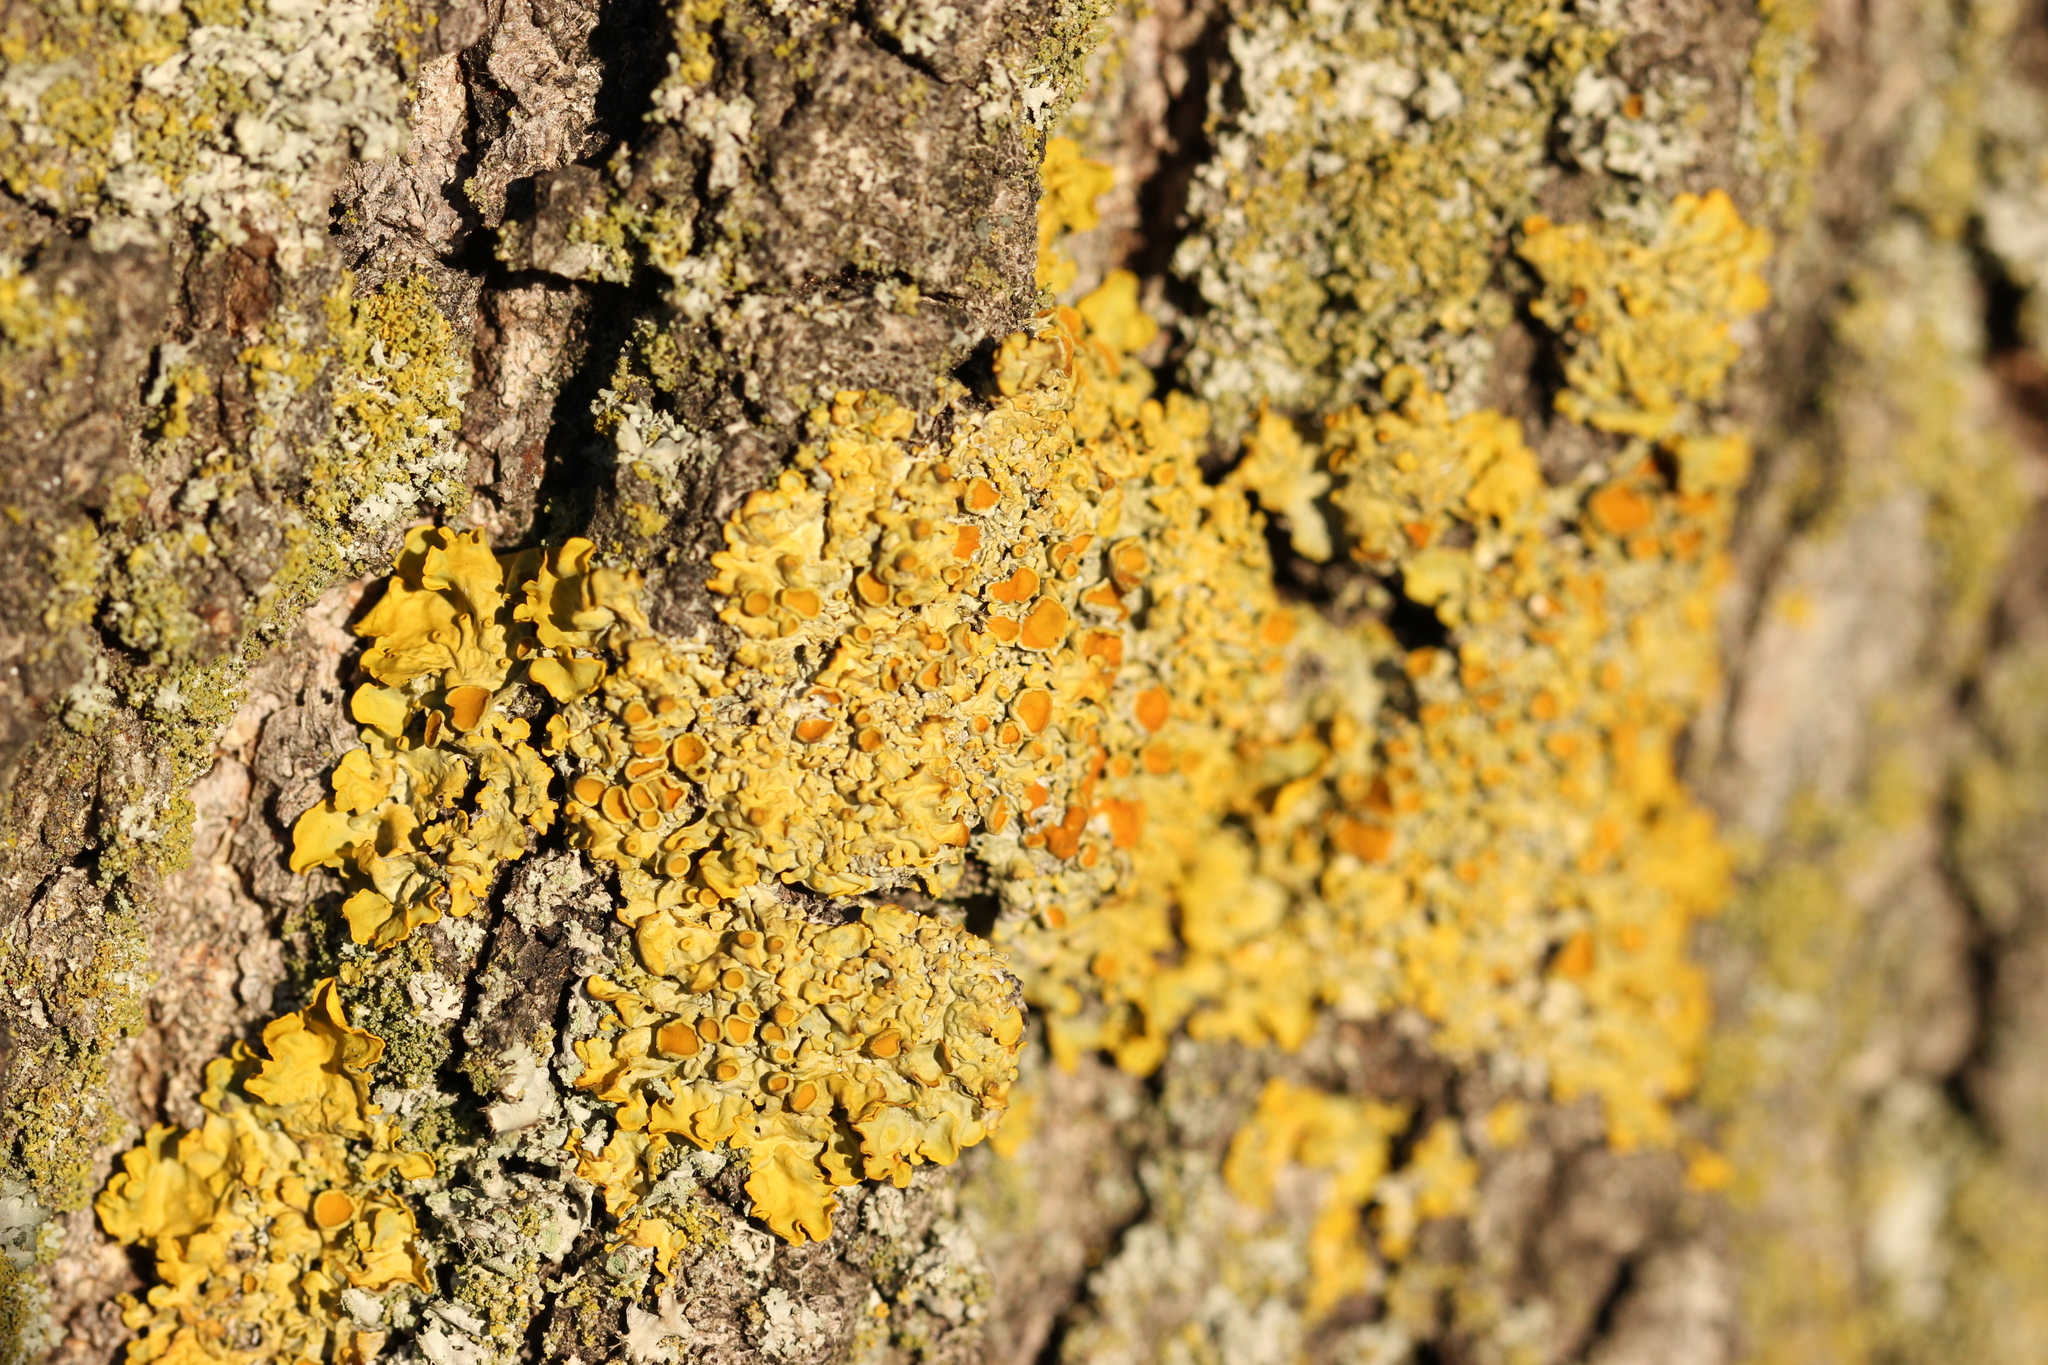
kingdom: Fungi
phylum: Ascomycota
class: Lecanoromycetes
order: Teloschistales
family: Teloschistaceae
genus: Xanthoria
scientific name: Xanthoria parietina
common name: Common orange lichen
